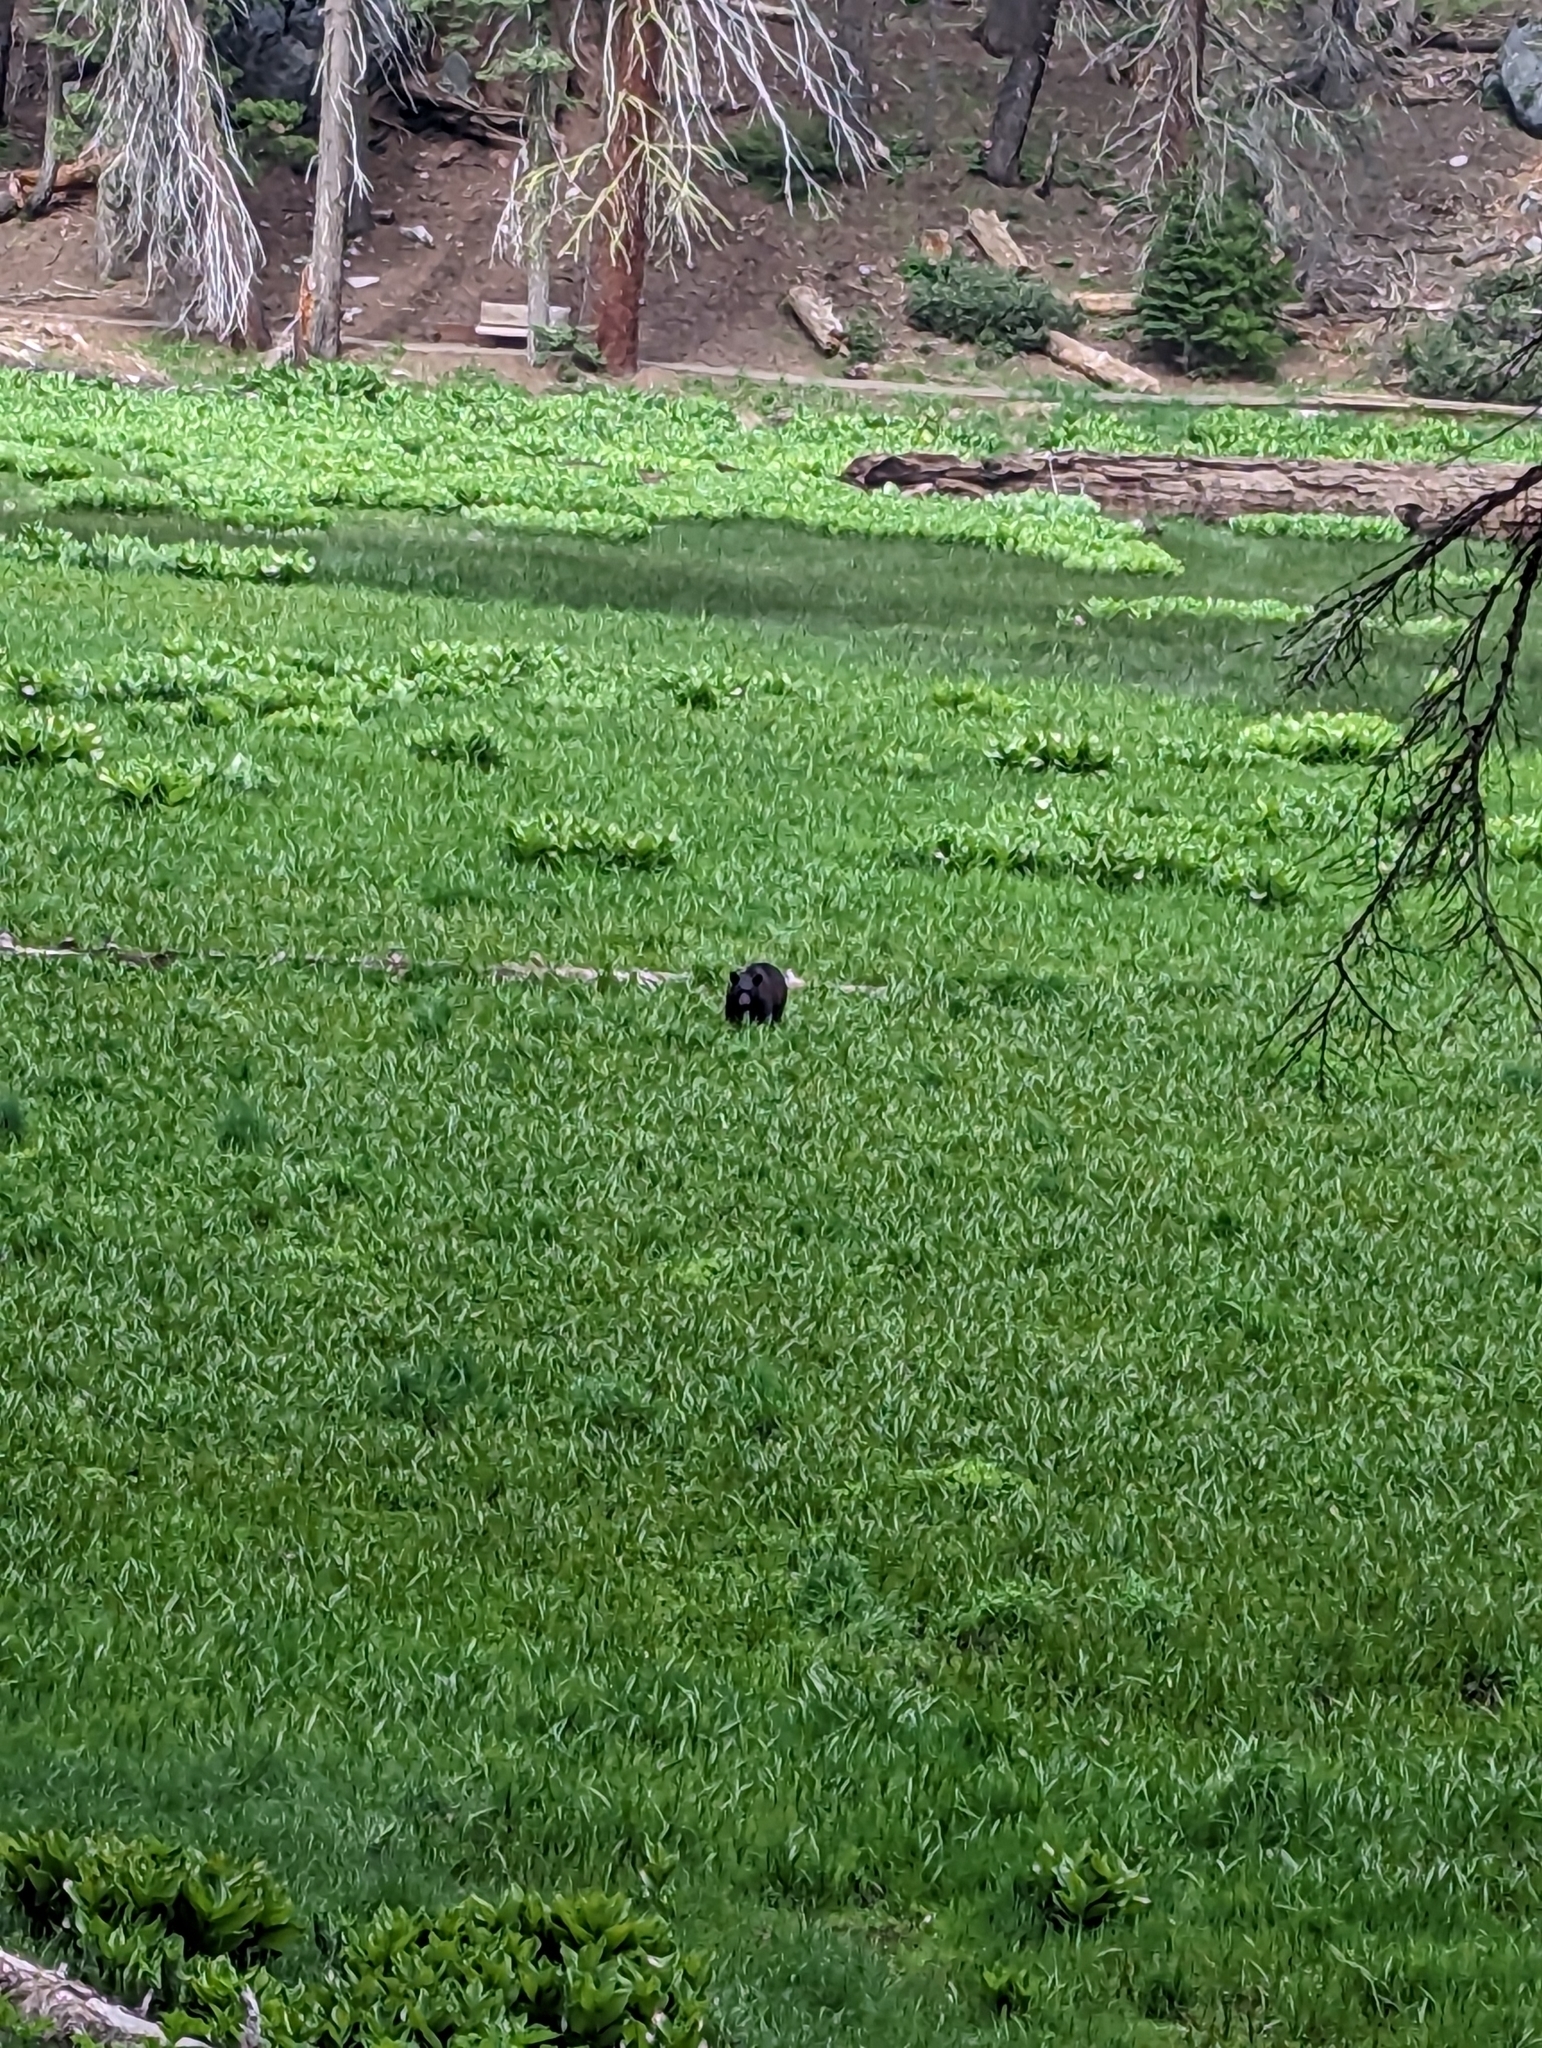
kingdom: Animalia
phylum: Chordata
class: Mammalia
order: Carnivora
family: Ursidae
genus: Ursus
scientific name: Ursus americanus
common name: American black bear
